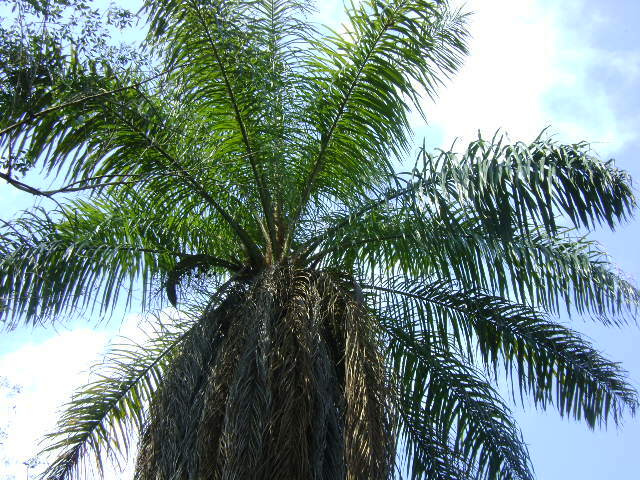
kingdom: Plantae
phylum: Tracheophyta
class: Liliopsida
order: Arecales
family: Arecaceae
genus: Acrocomia
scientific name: Acrocomia aculeata
